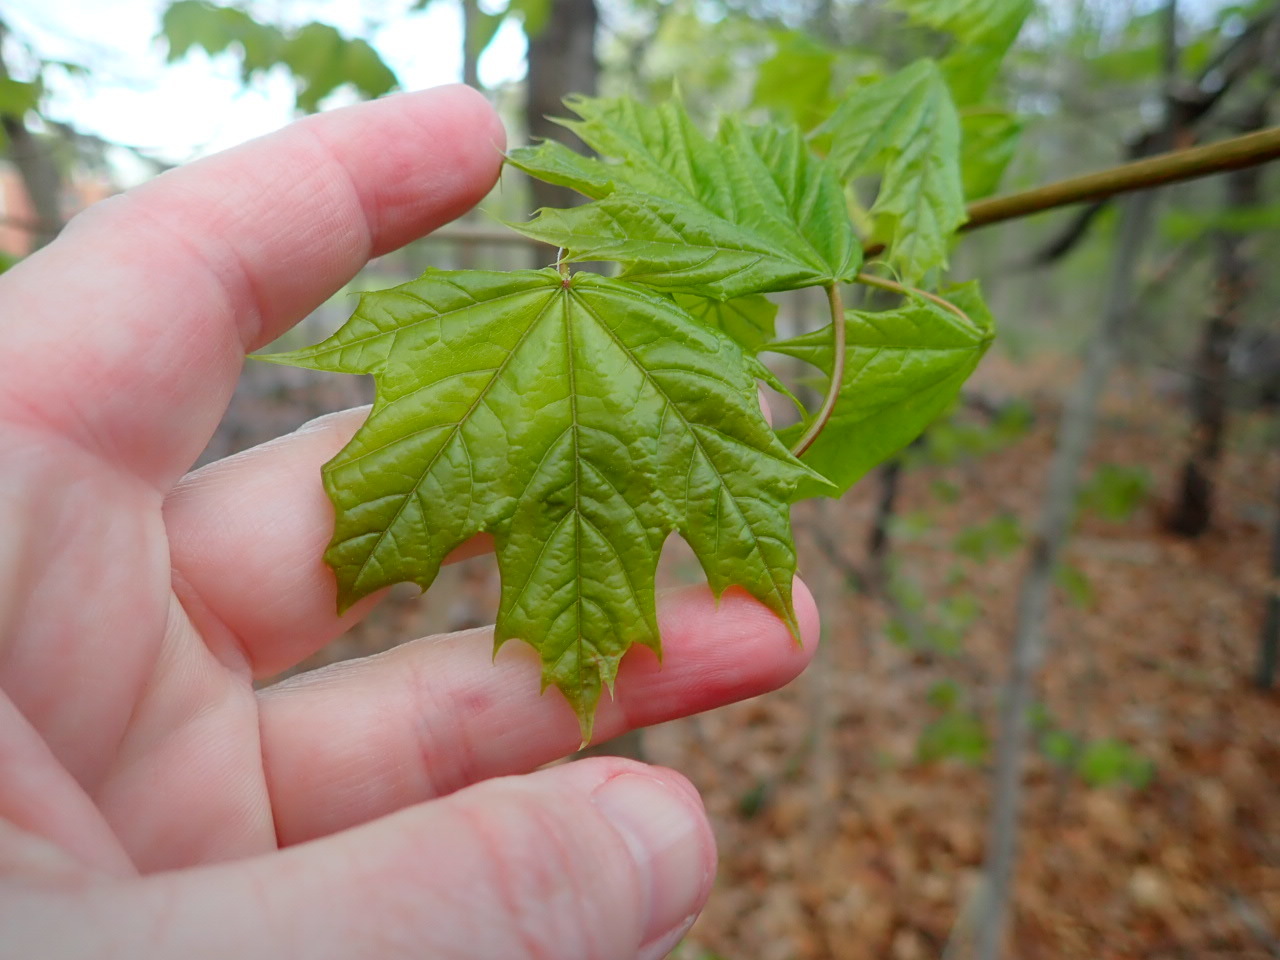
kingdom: Plantae
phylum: Tracheophyta
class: Magnoliopsida
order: Sapindales
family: Sapindaceae
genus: Acer
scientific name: Acer platanoides
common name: Norway maple
